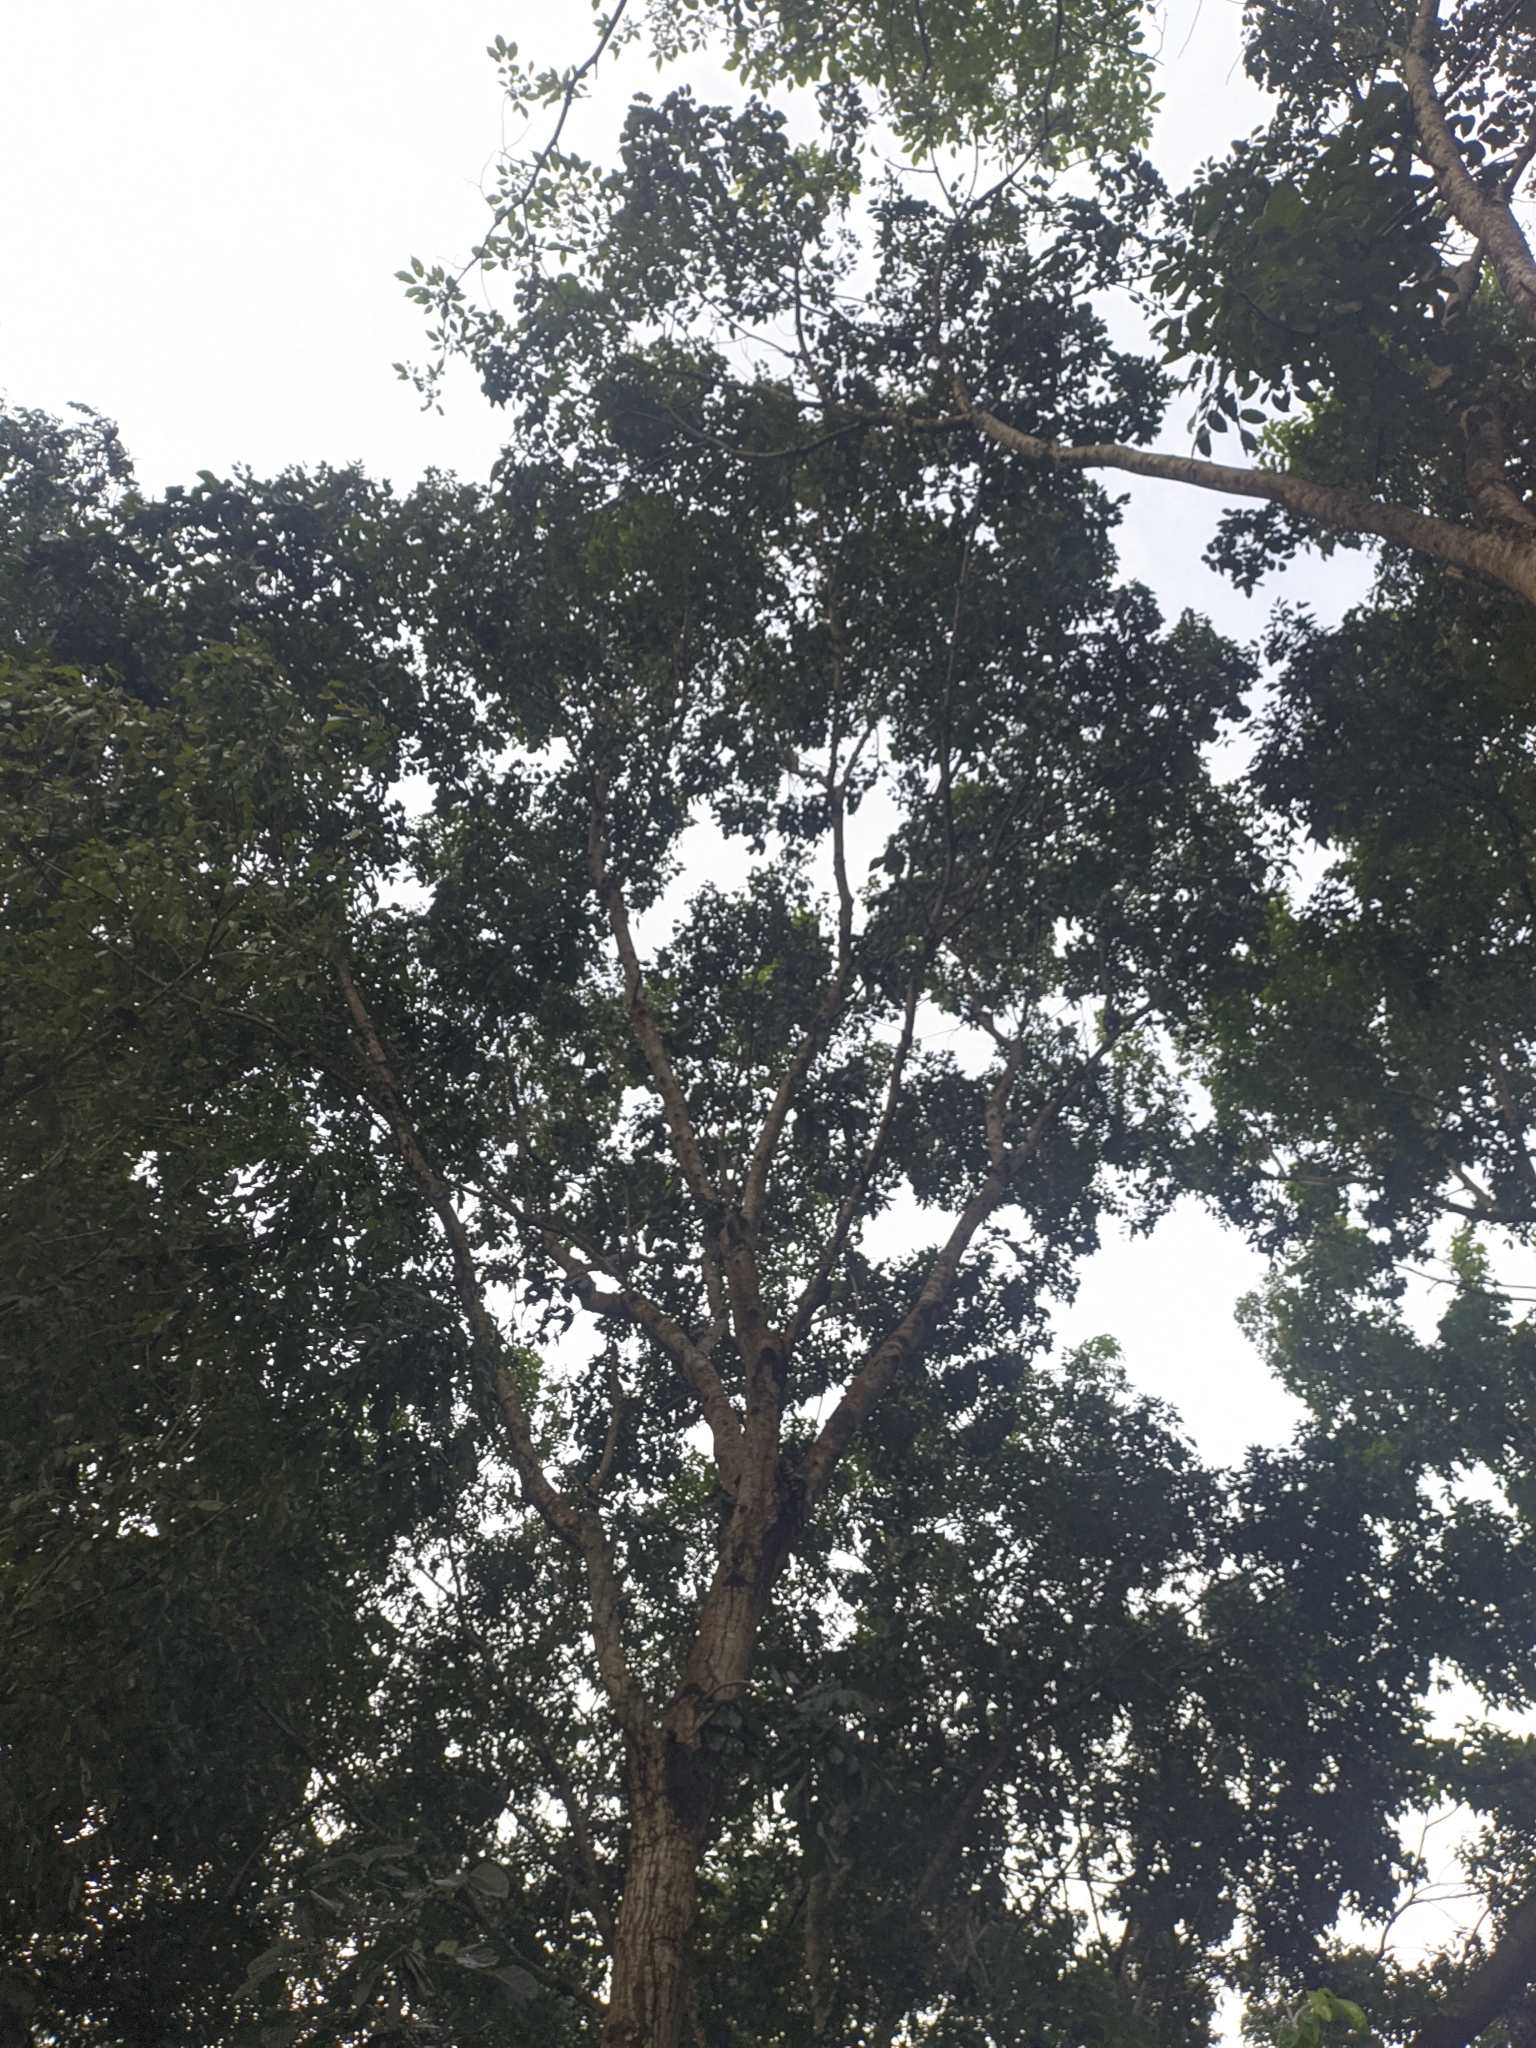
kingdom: Plantae
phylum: Tracheophyta
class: Magnoliopsida
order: Sapindales
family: Meliaceae
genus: Swietenia
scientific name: Swietenia macrophylla
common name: Honduras mahogany
